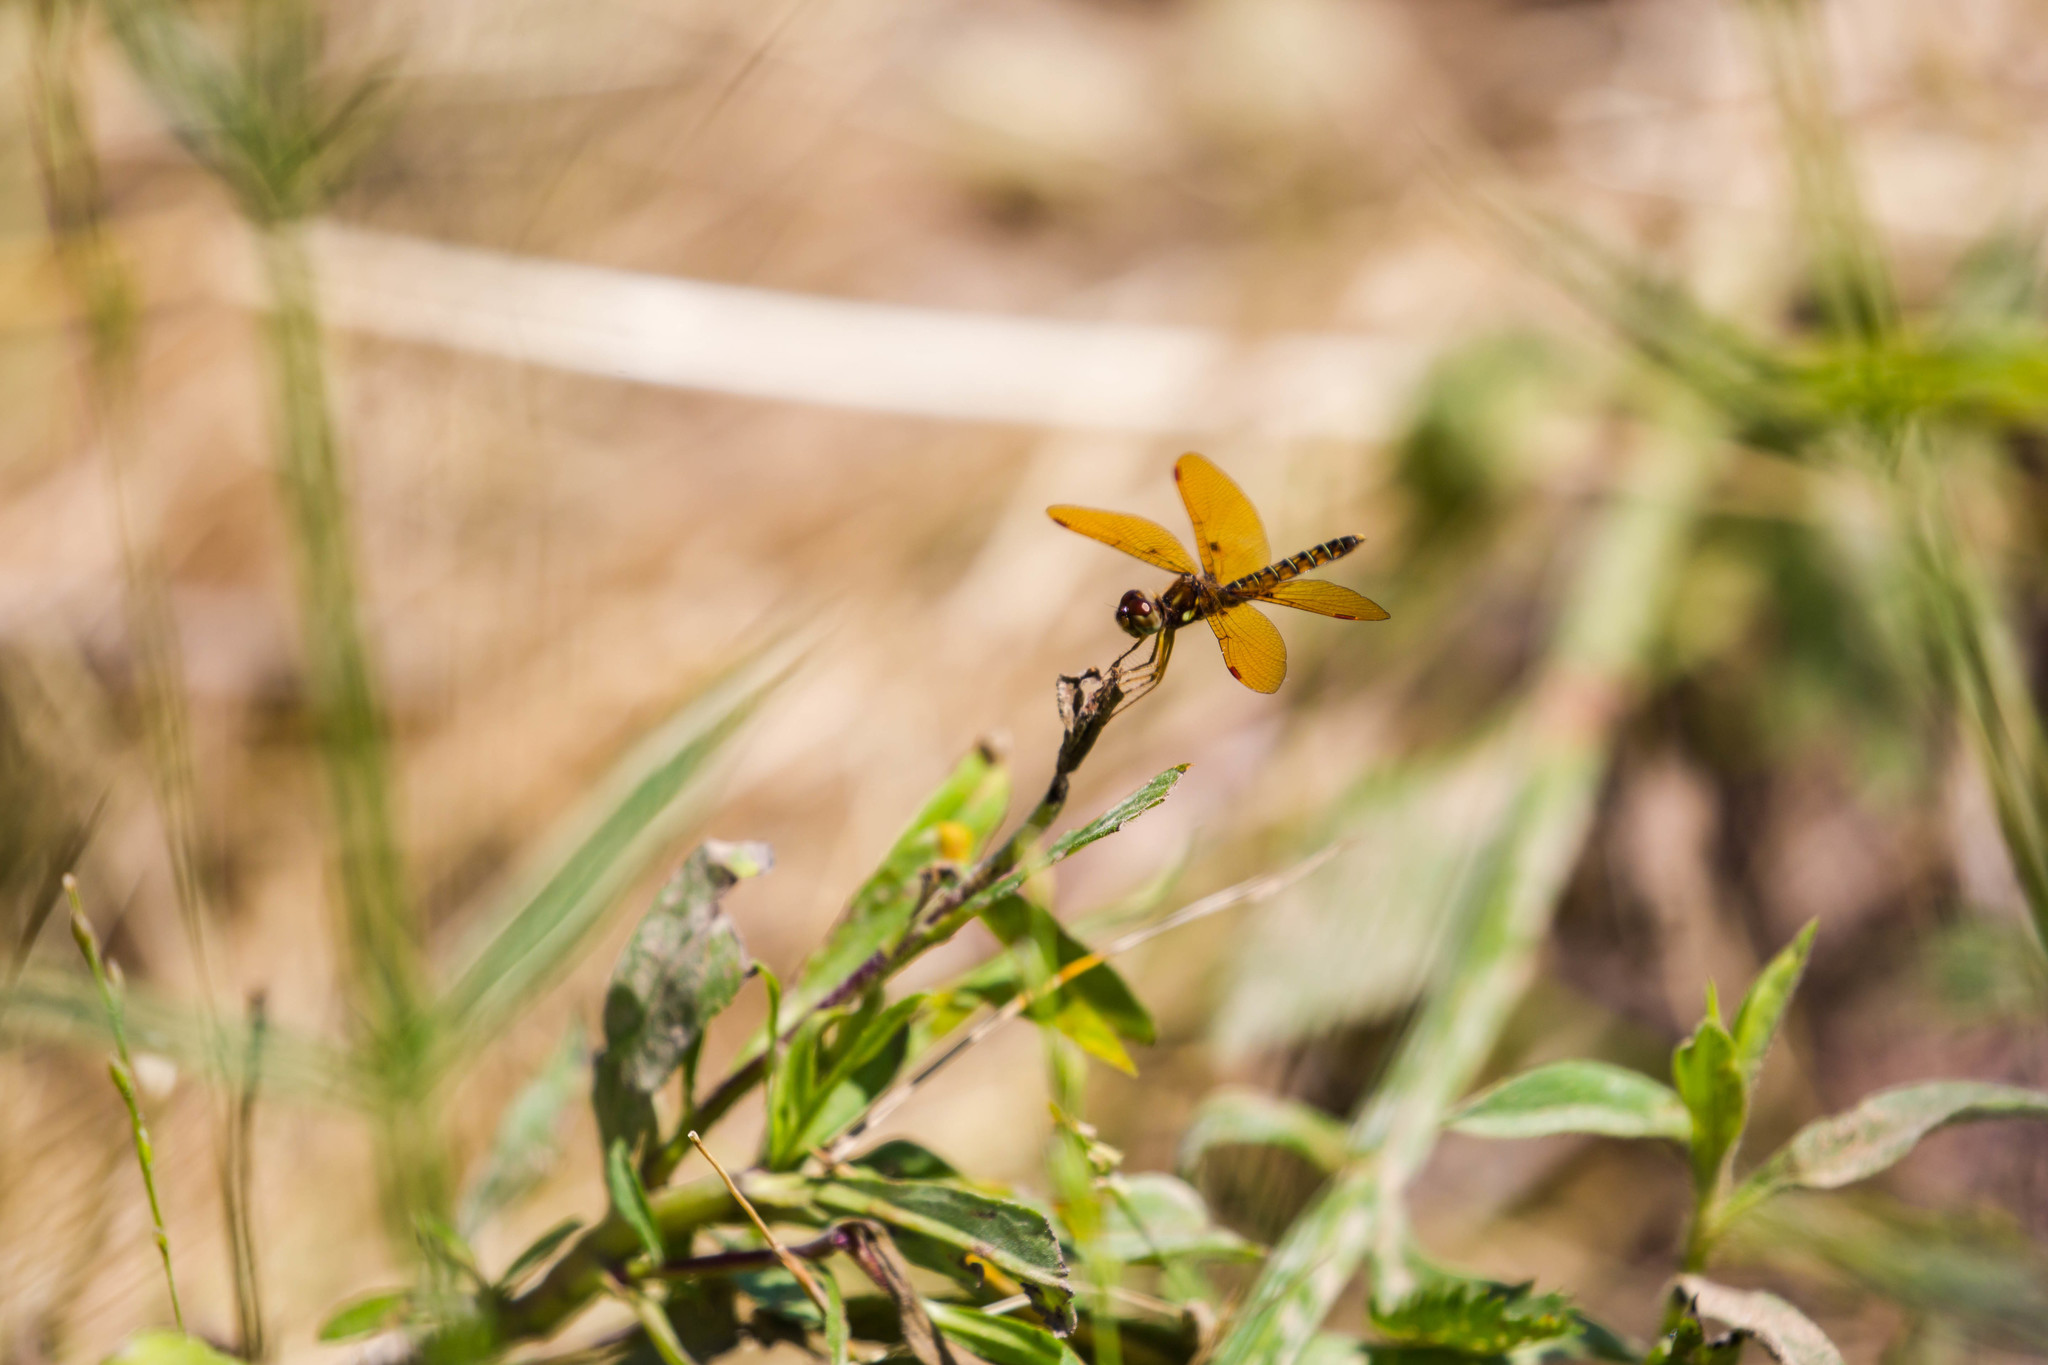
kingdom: Animalia
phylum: Arthropoda
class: Insecta
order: Odonata
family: Libellulidae
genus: Perithemis
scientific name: Perithemis tenera
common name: Eastern amberwing
